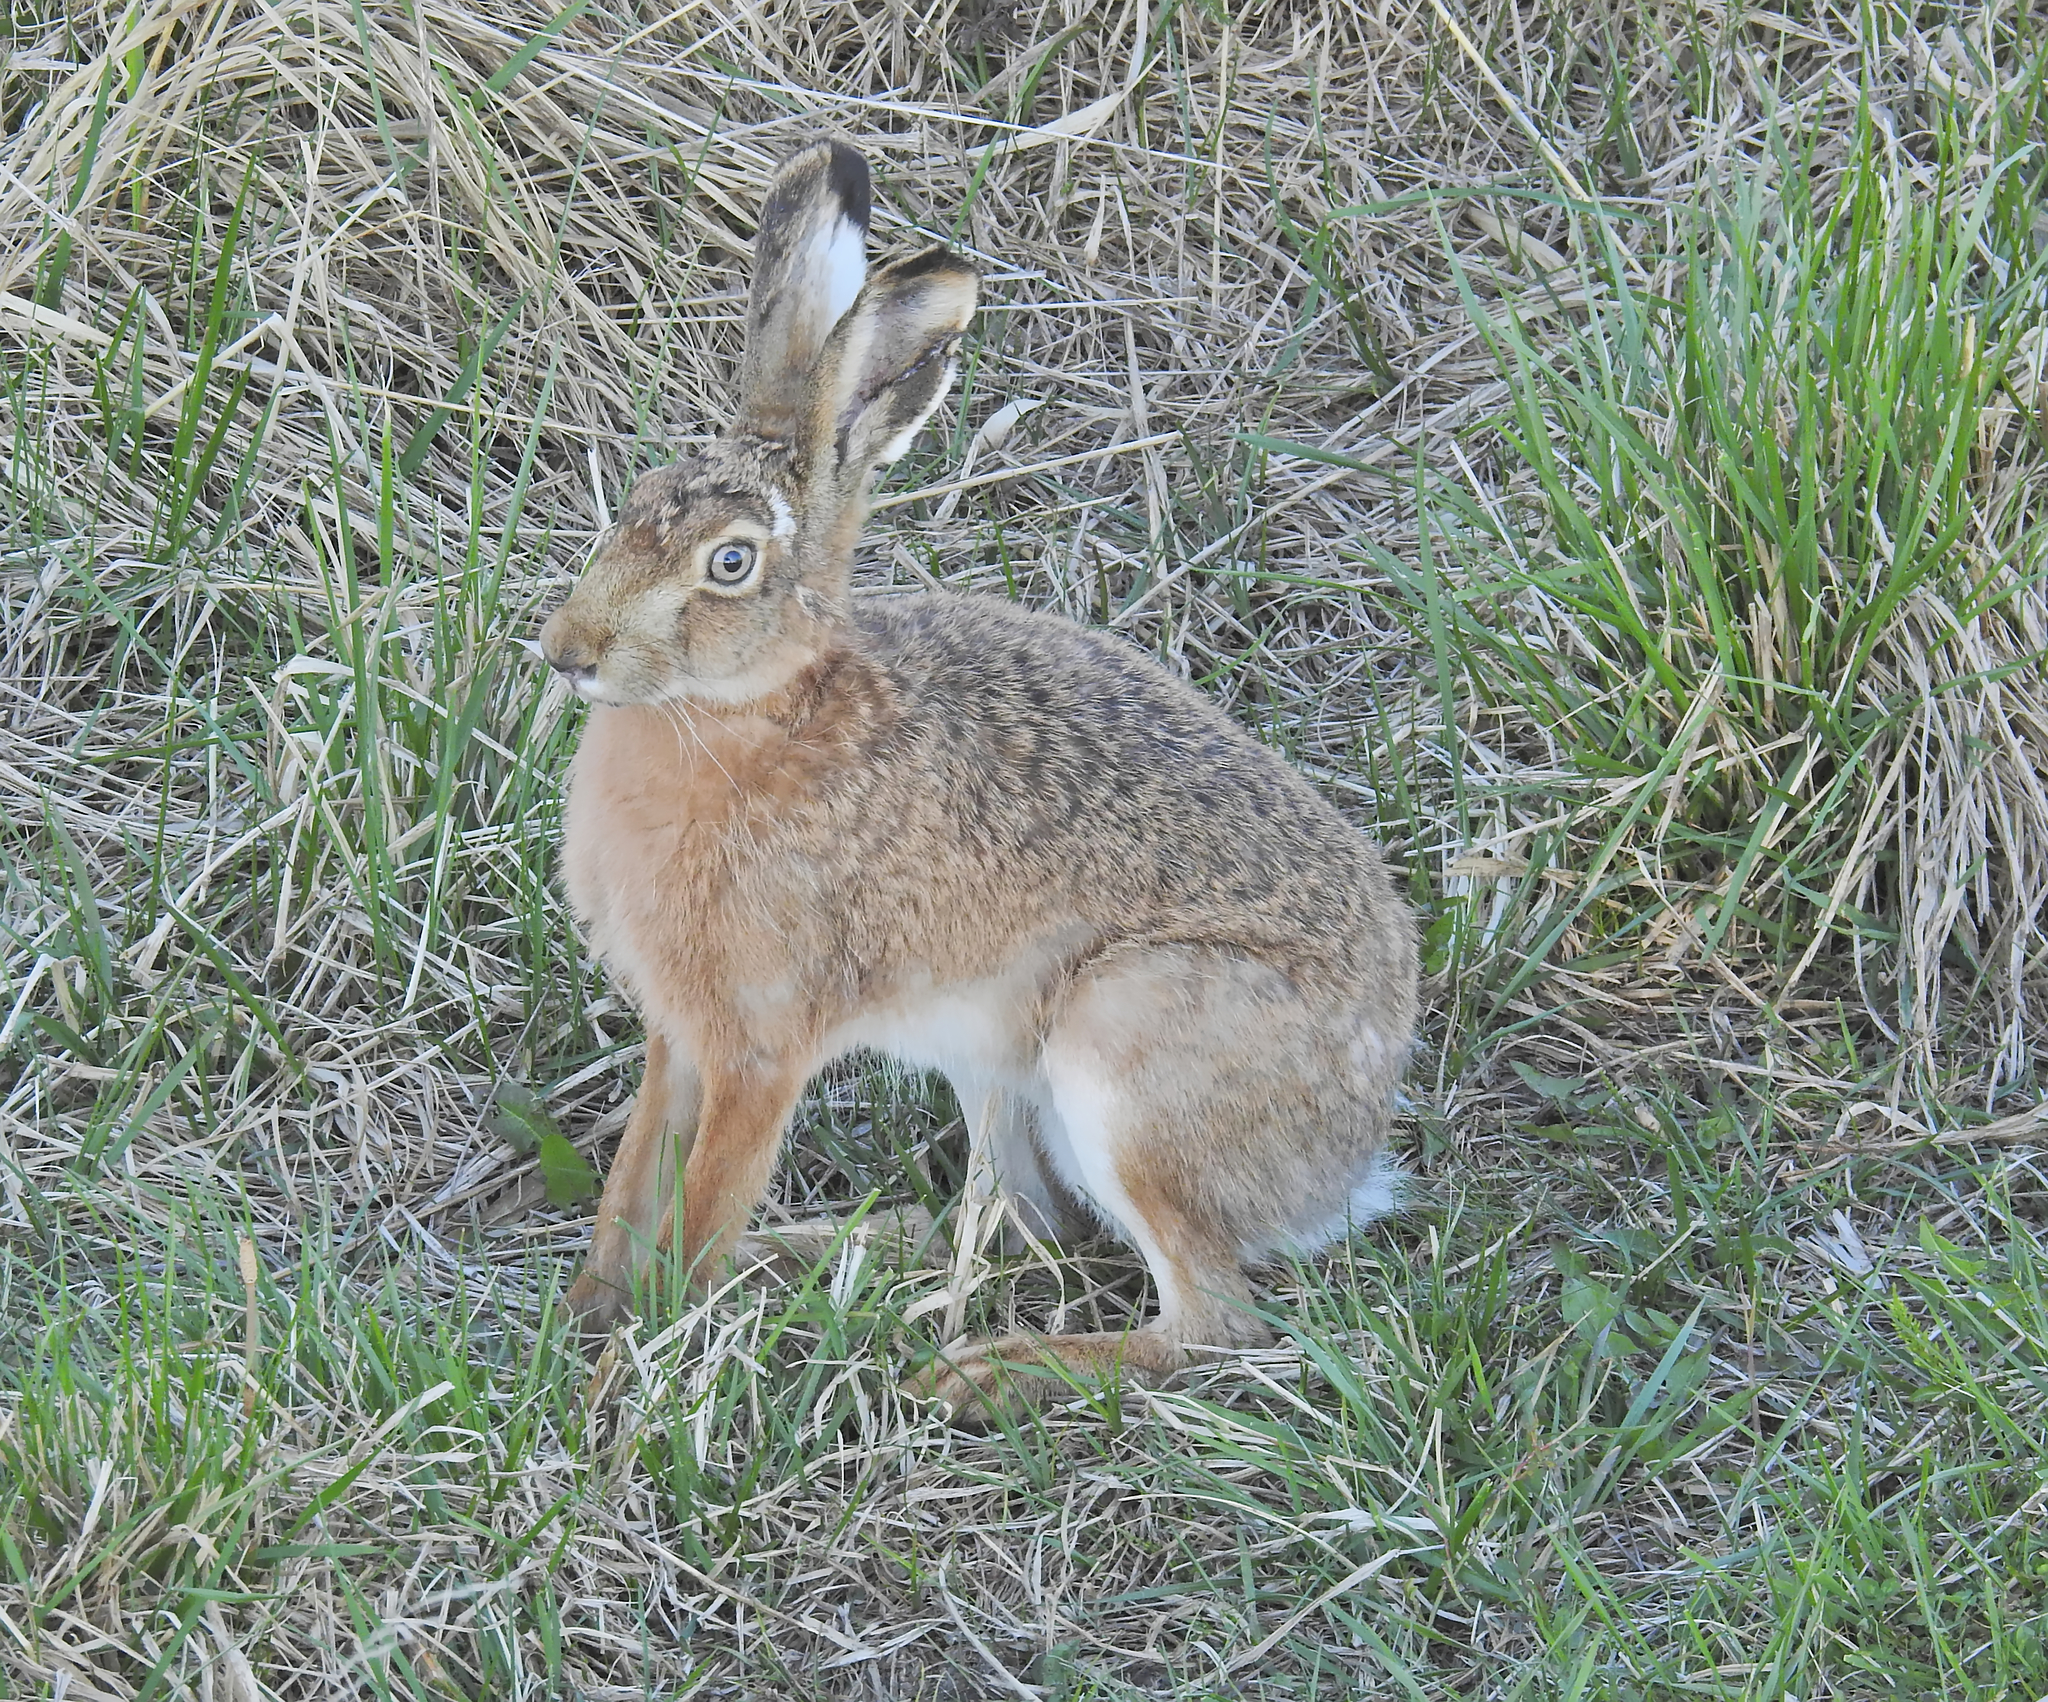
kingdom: Animalia
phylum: Chordata
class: Mammalia
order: Lagomorpha
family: Leporidae
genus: Lepus
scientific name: Lepus europaeus
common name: European hare
